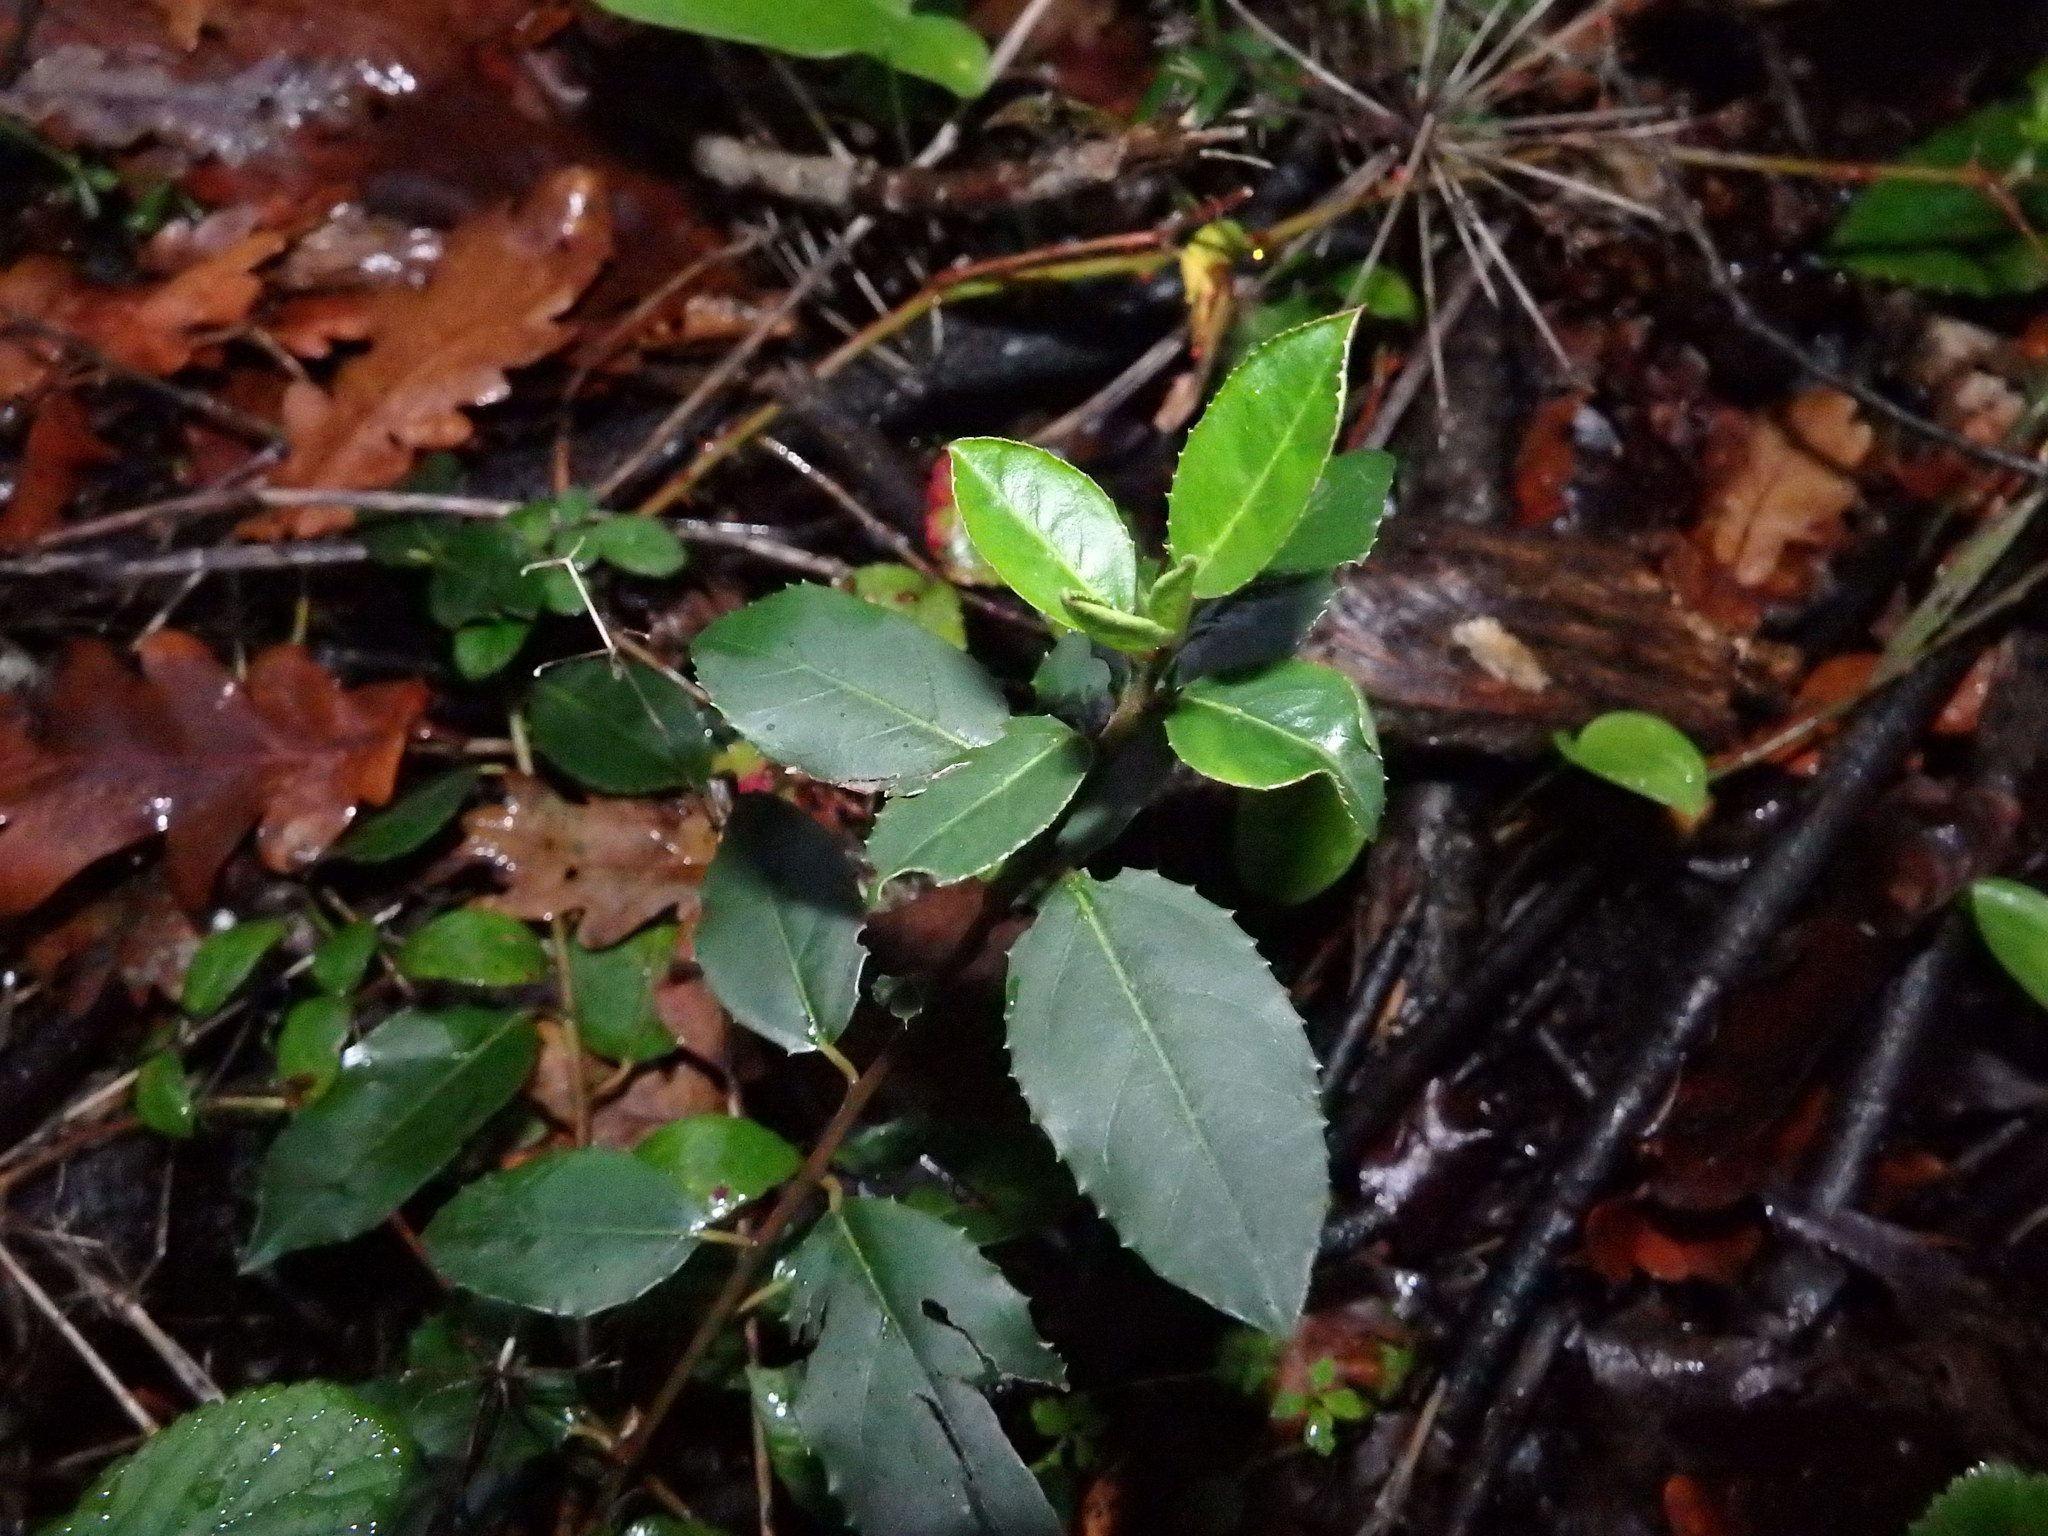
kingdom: Plantae
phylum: Tracheophyta
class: Magnoliopsida
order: Rosales
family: Rhamnaceae
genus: Rhamnus
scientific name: Rhamnus alaternus
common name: Mediterranean buckthorn
